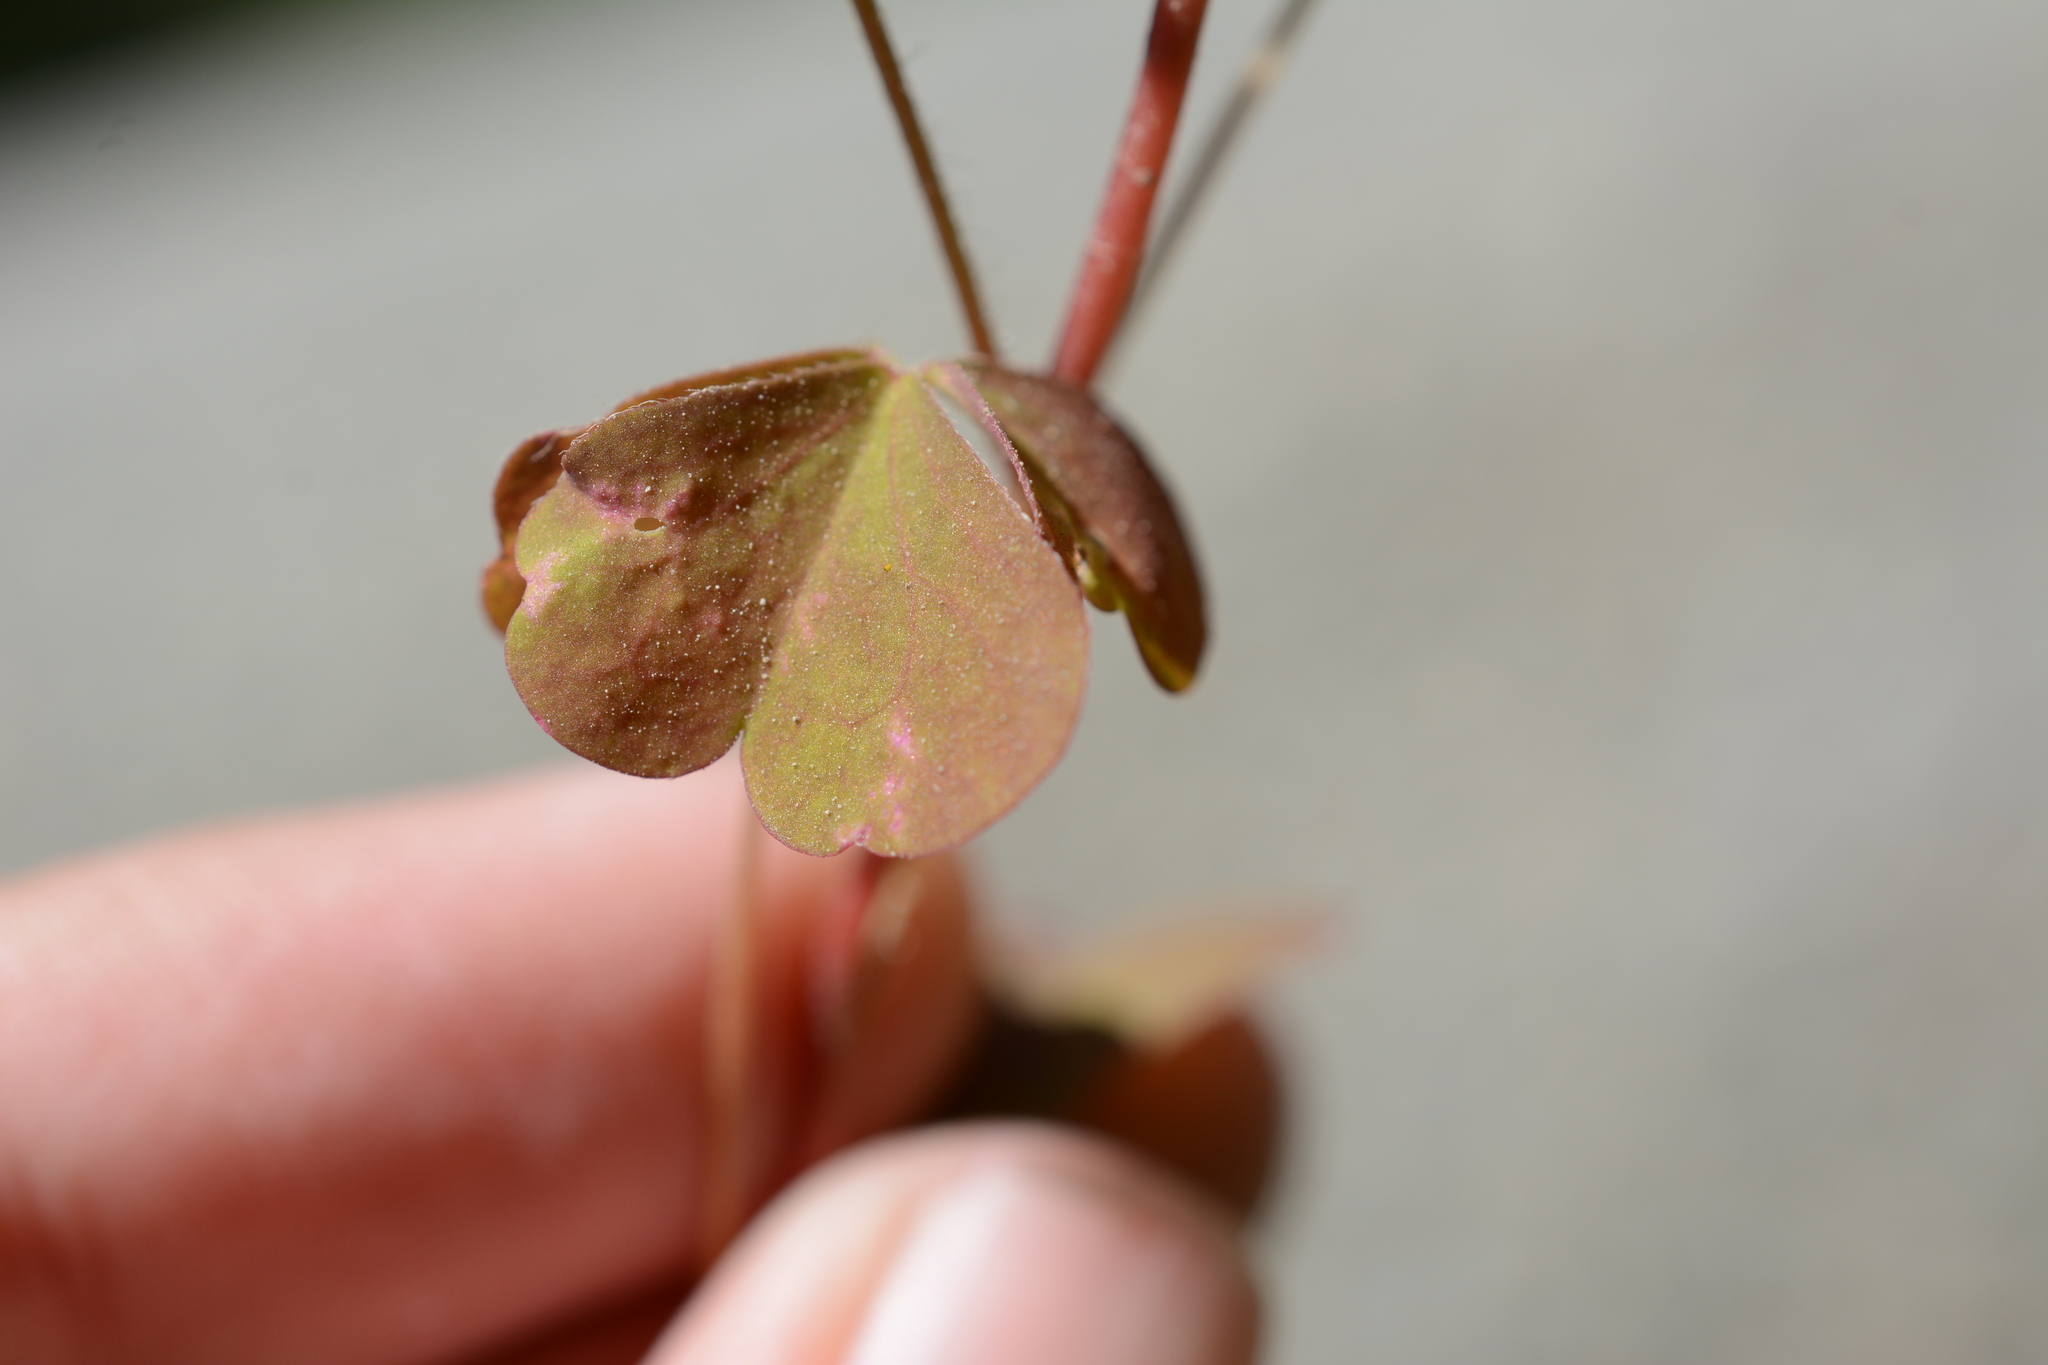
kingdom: Plantae
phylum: Tracheophyta
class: Magnoliopsida
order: Oxalidales
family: Oxalidaceae
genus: Oxalis
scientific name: Oxalis stricta
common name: Upright yellow-sorrel
